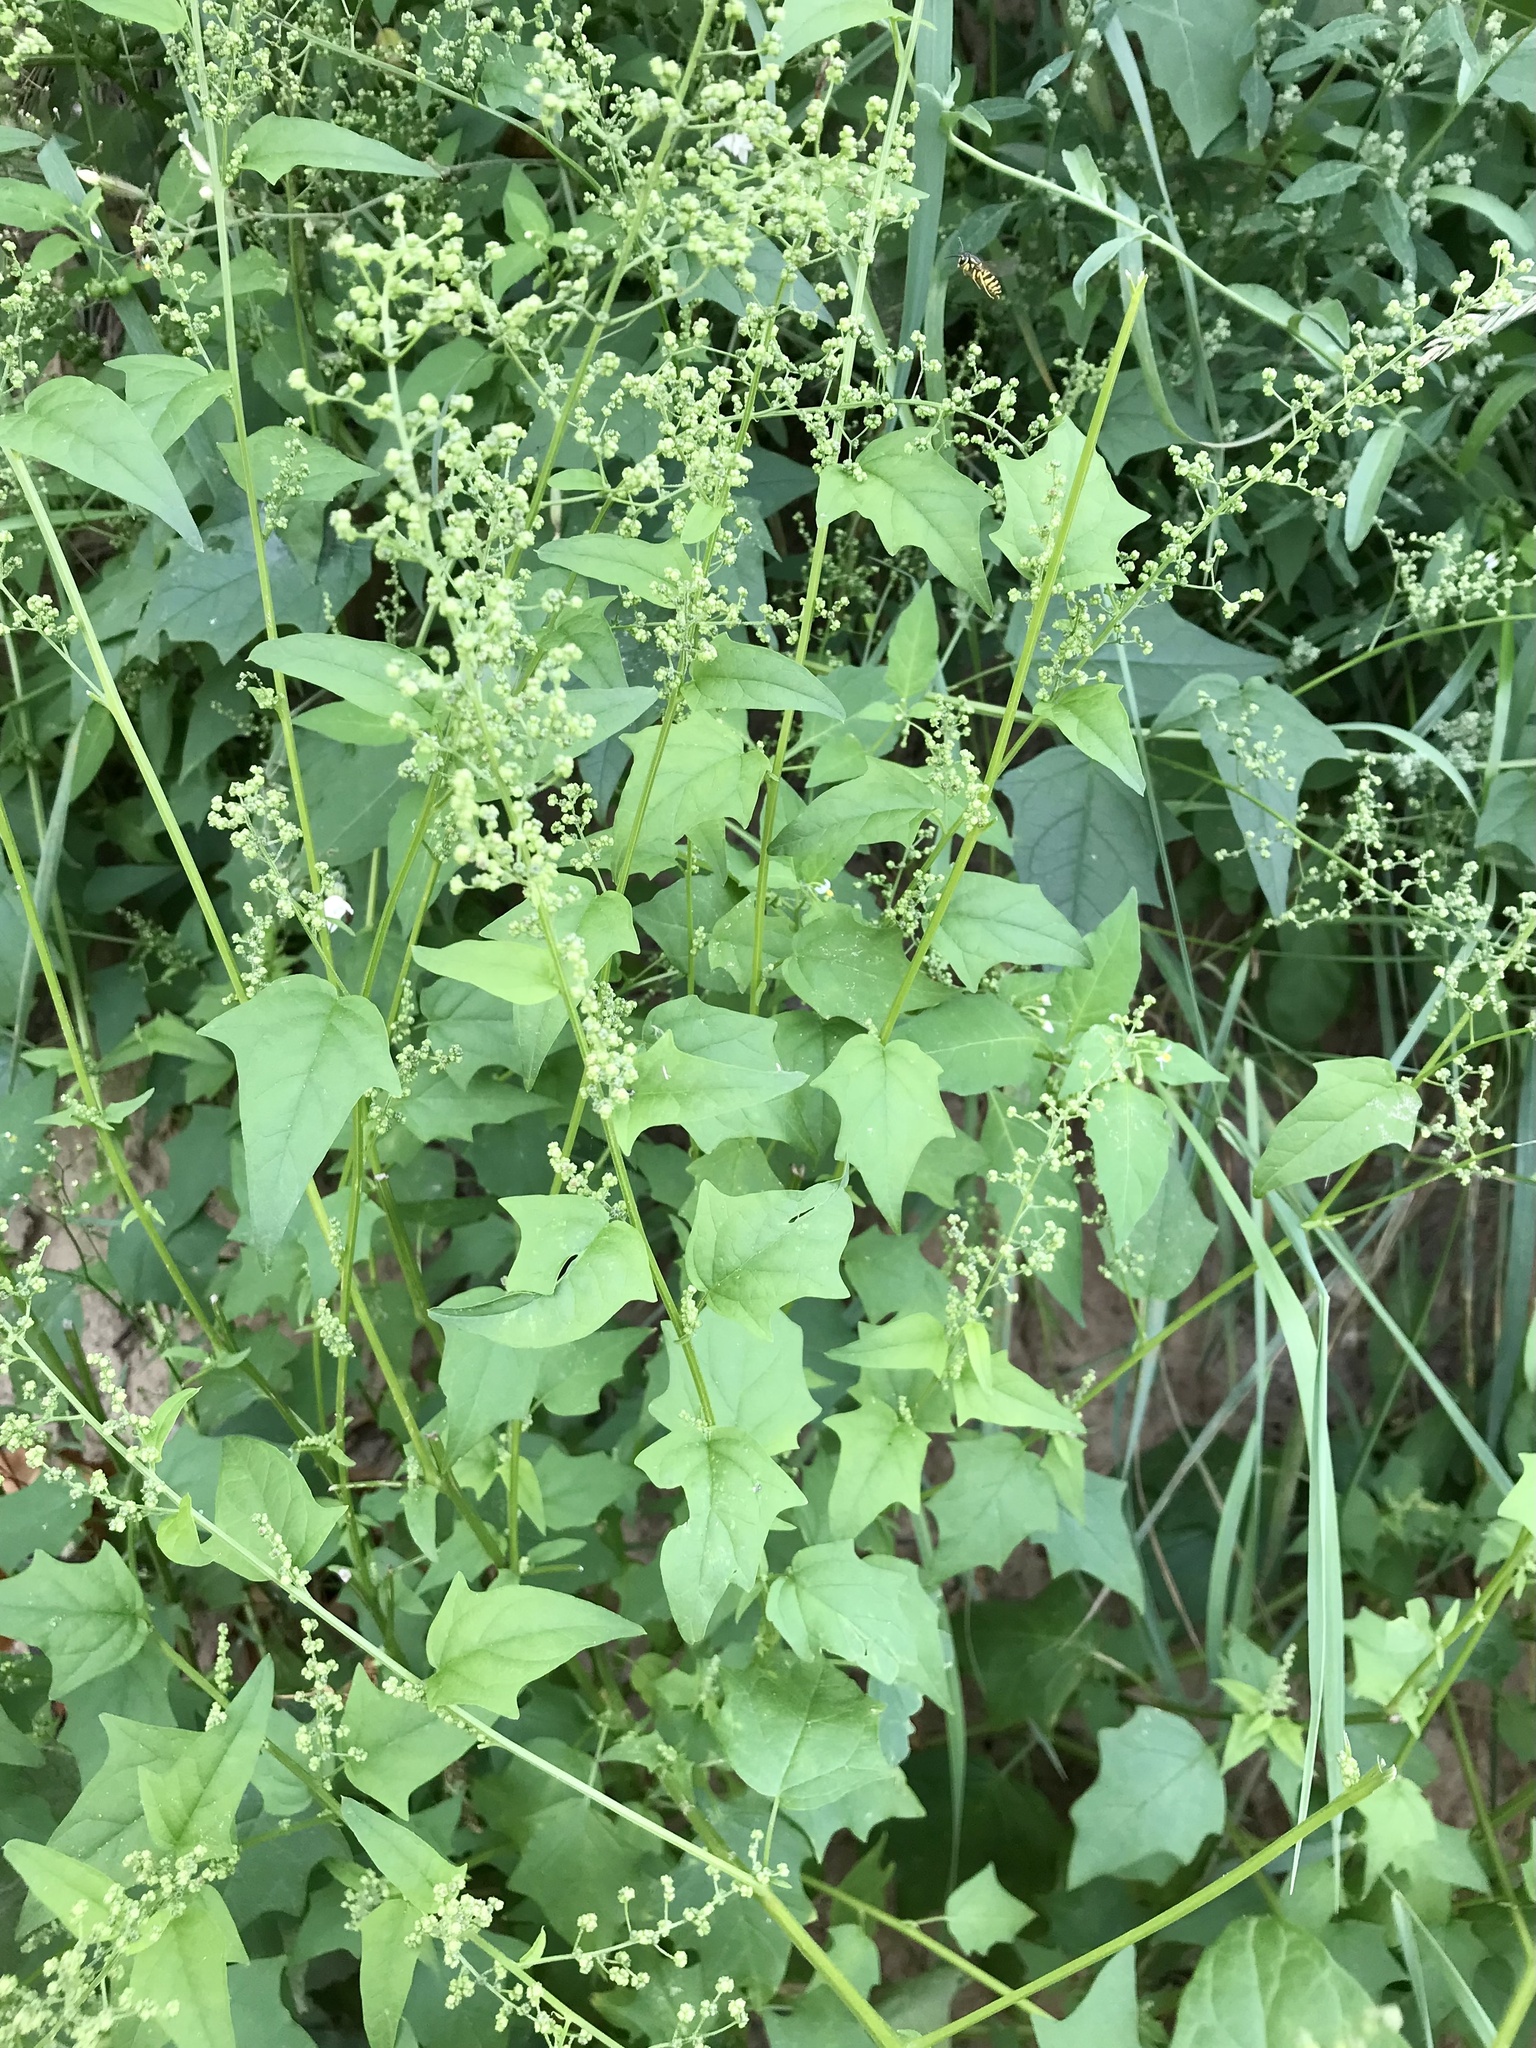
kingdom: Plantae
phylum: Tracheophyta
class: Magnoliopsida
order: Caryophyllales
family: Amaranthaceae
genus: Chenopodiastrum
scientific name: Chenopodiastrum hybridum
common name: Mapleleaf goosefoot
